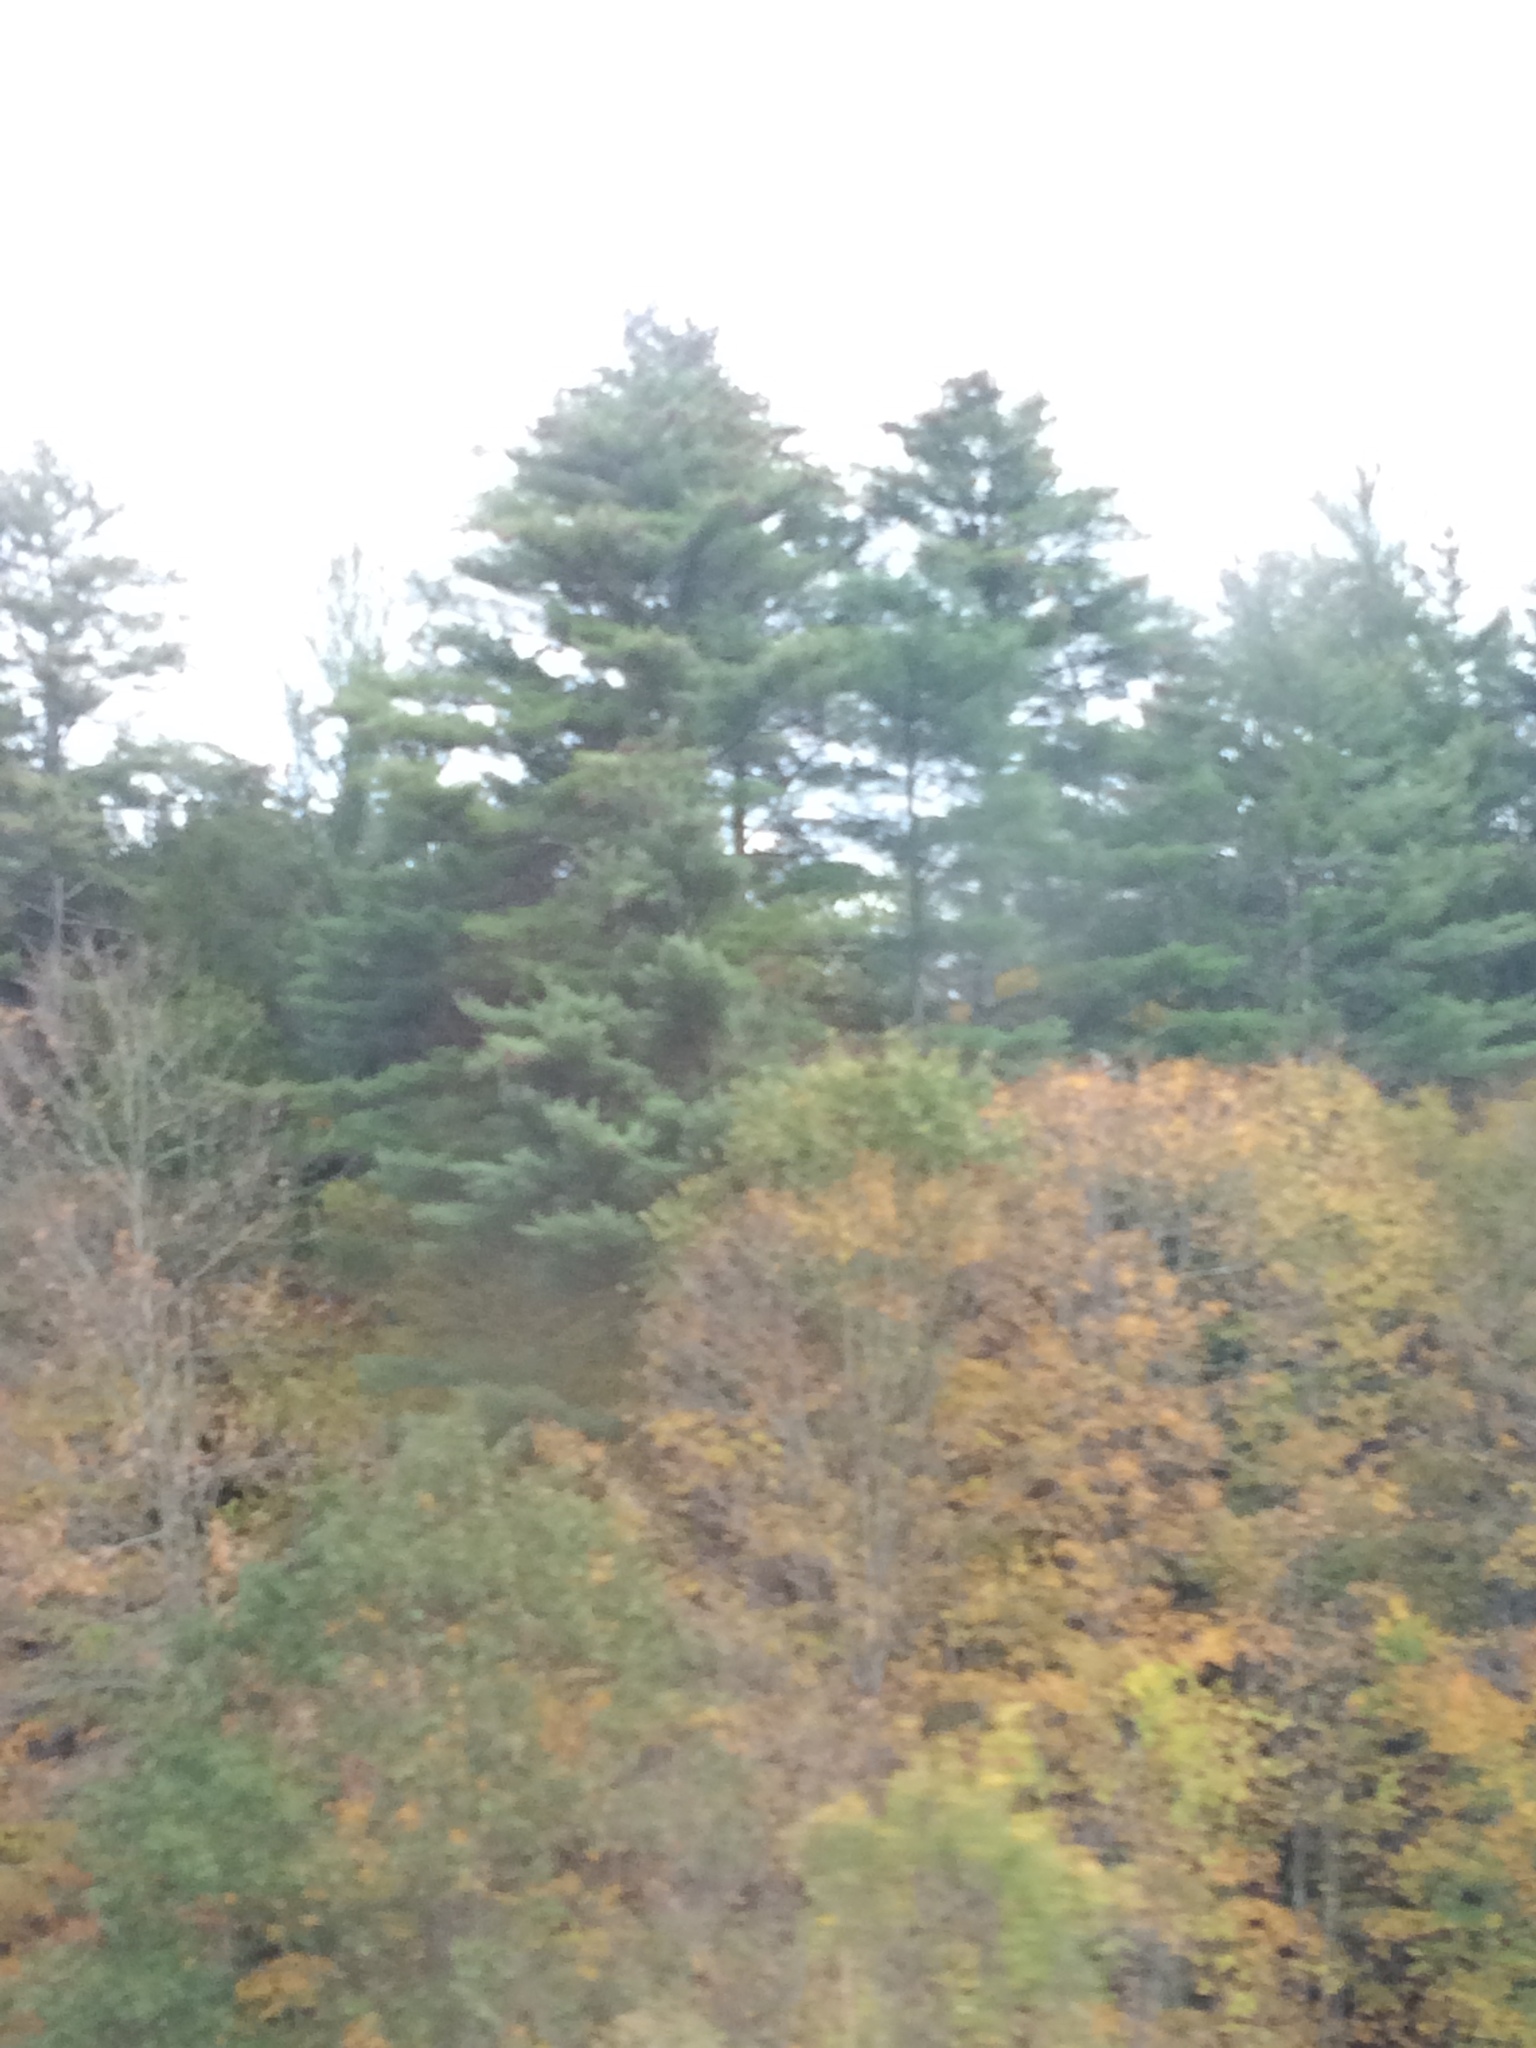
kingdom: Plantae
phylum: Tracheophyta
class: Pinopsida
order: Pinales
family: Pinaceae
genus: Pinus
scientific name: Pinus strobus
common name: Weymouth pine
